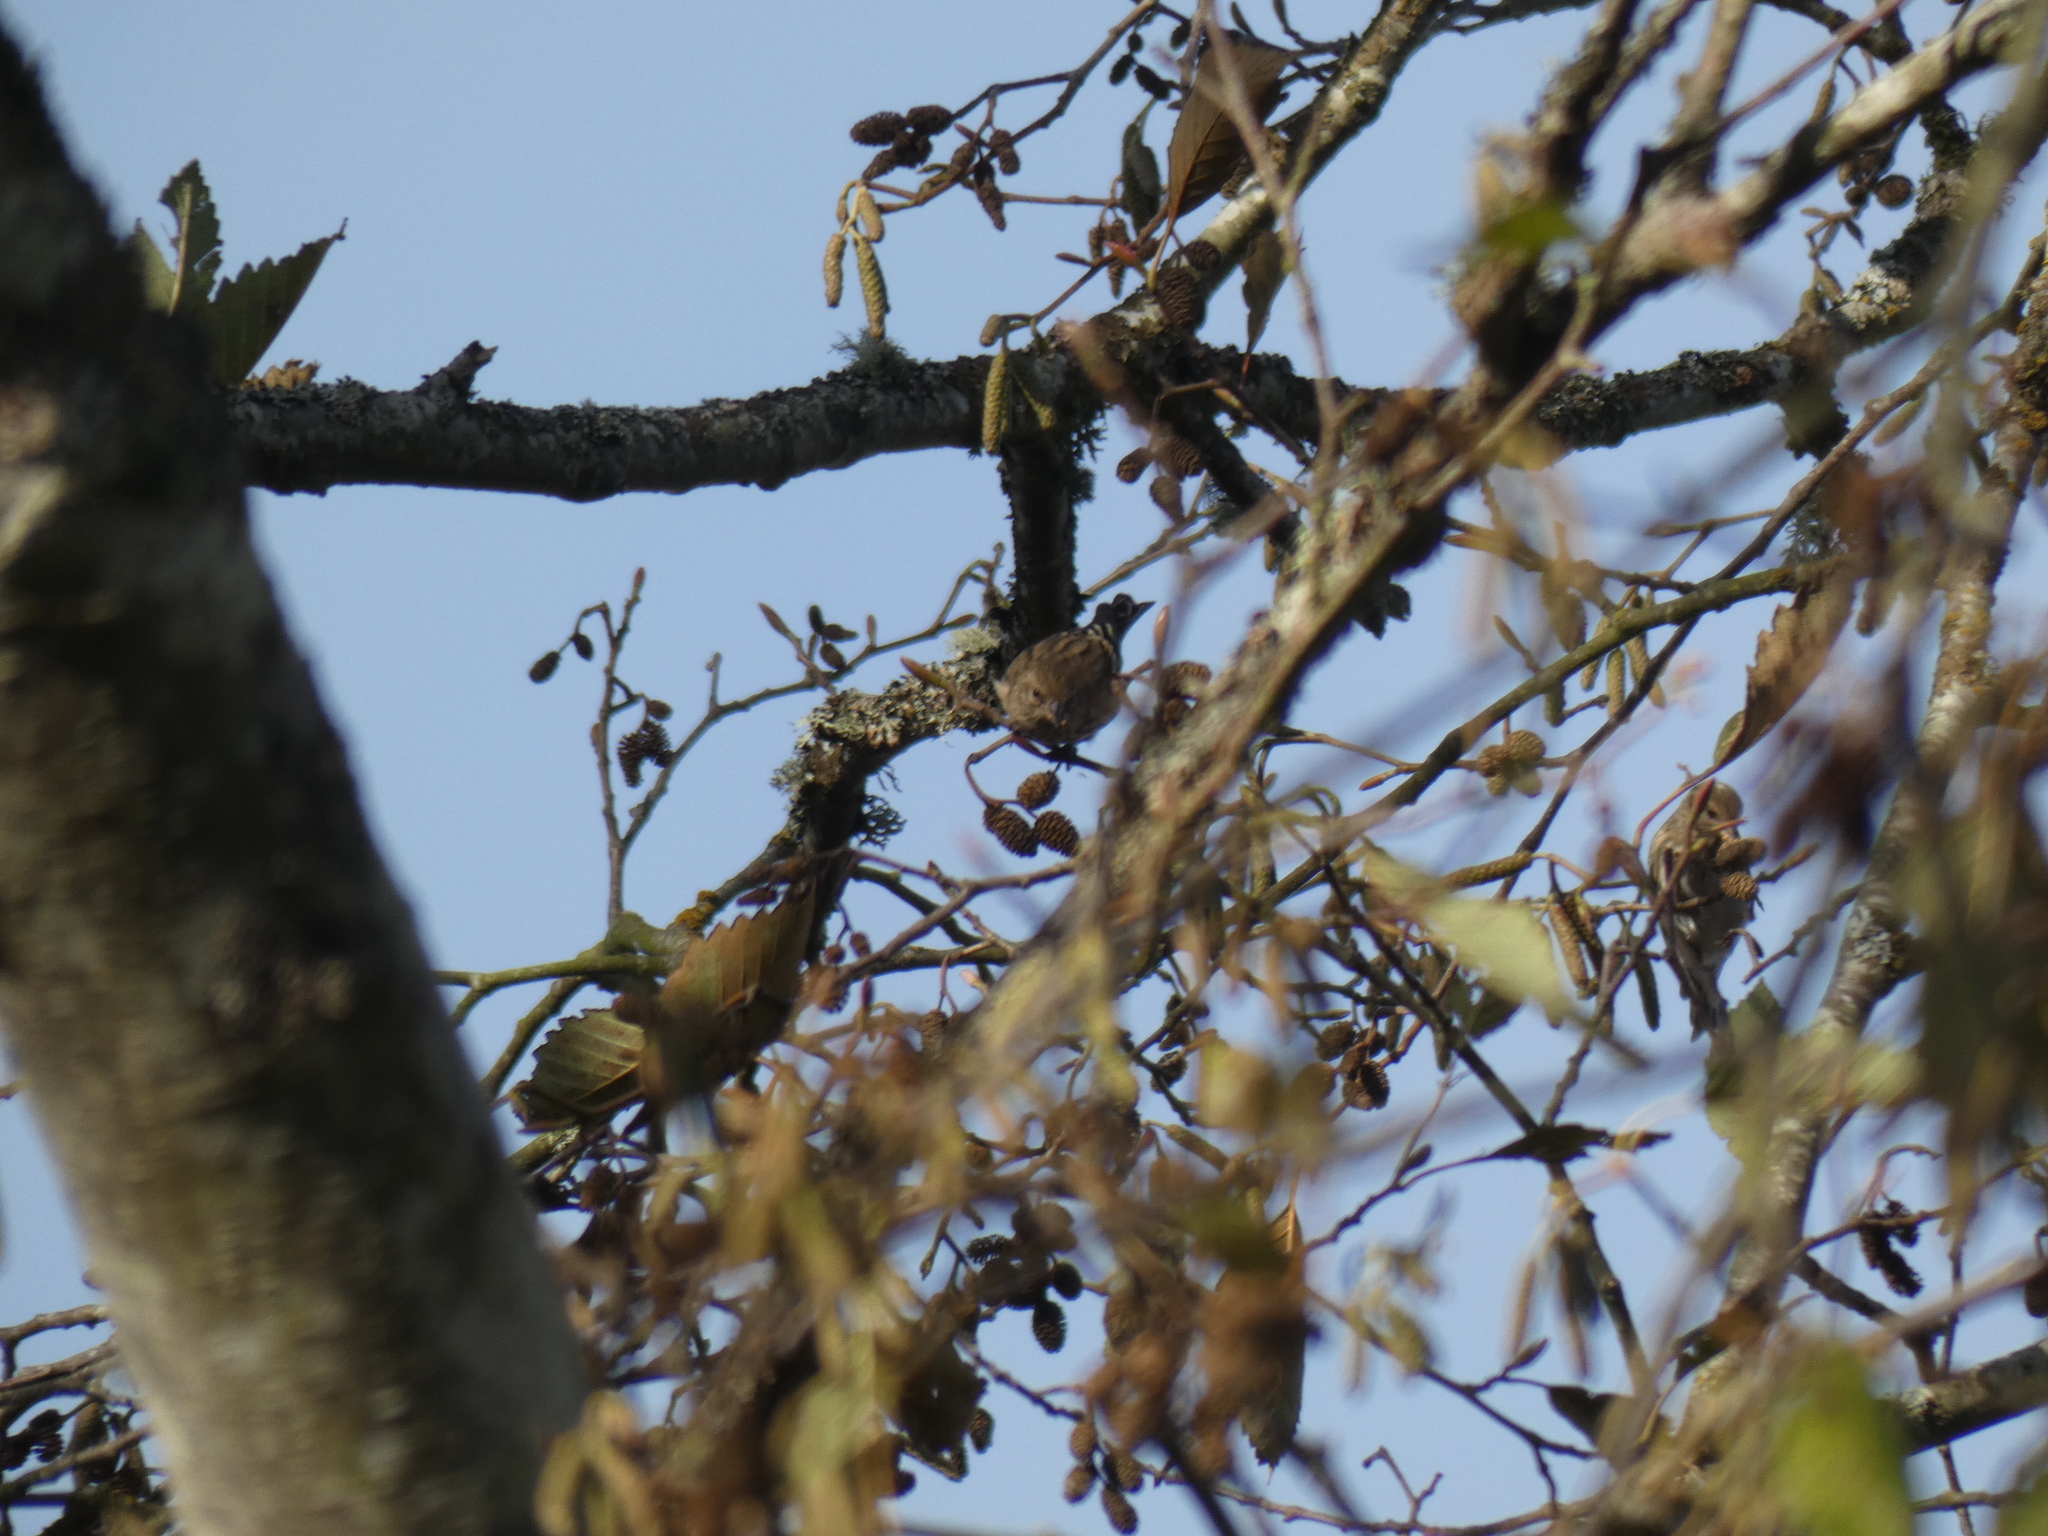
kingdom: Animalia
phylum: Chordata
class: Aves
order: Passeriformes
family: Fringillidae
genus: Spinus
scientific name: Spinus pinus
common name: Pine siskin
